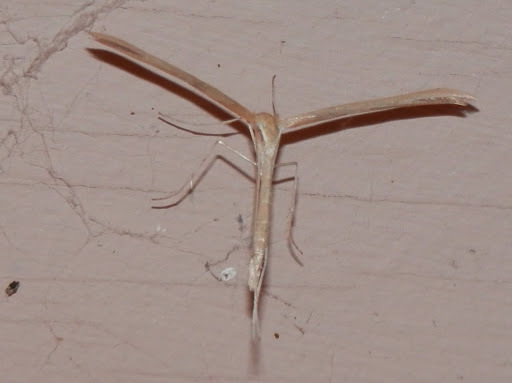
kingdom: Animalia
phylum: Arthropoda
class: Insecta
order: Lepidoptera
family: Pterophoridae
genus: Emmelina
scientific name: Emmelina monodactyla
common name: Common plume
